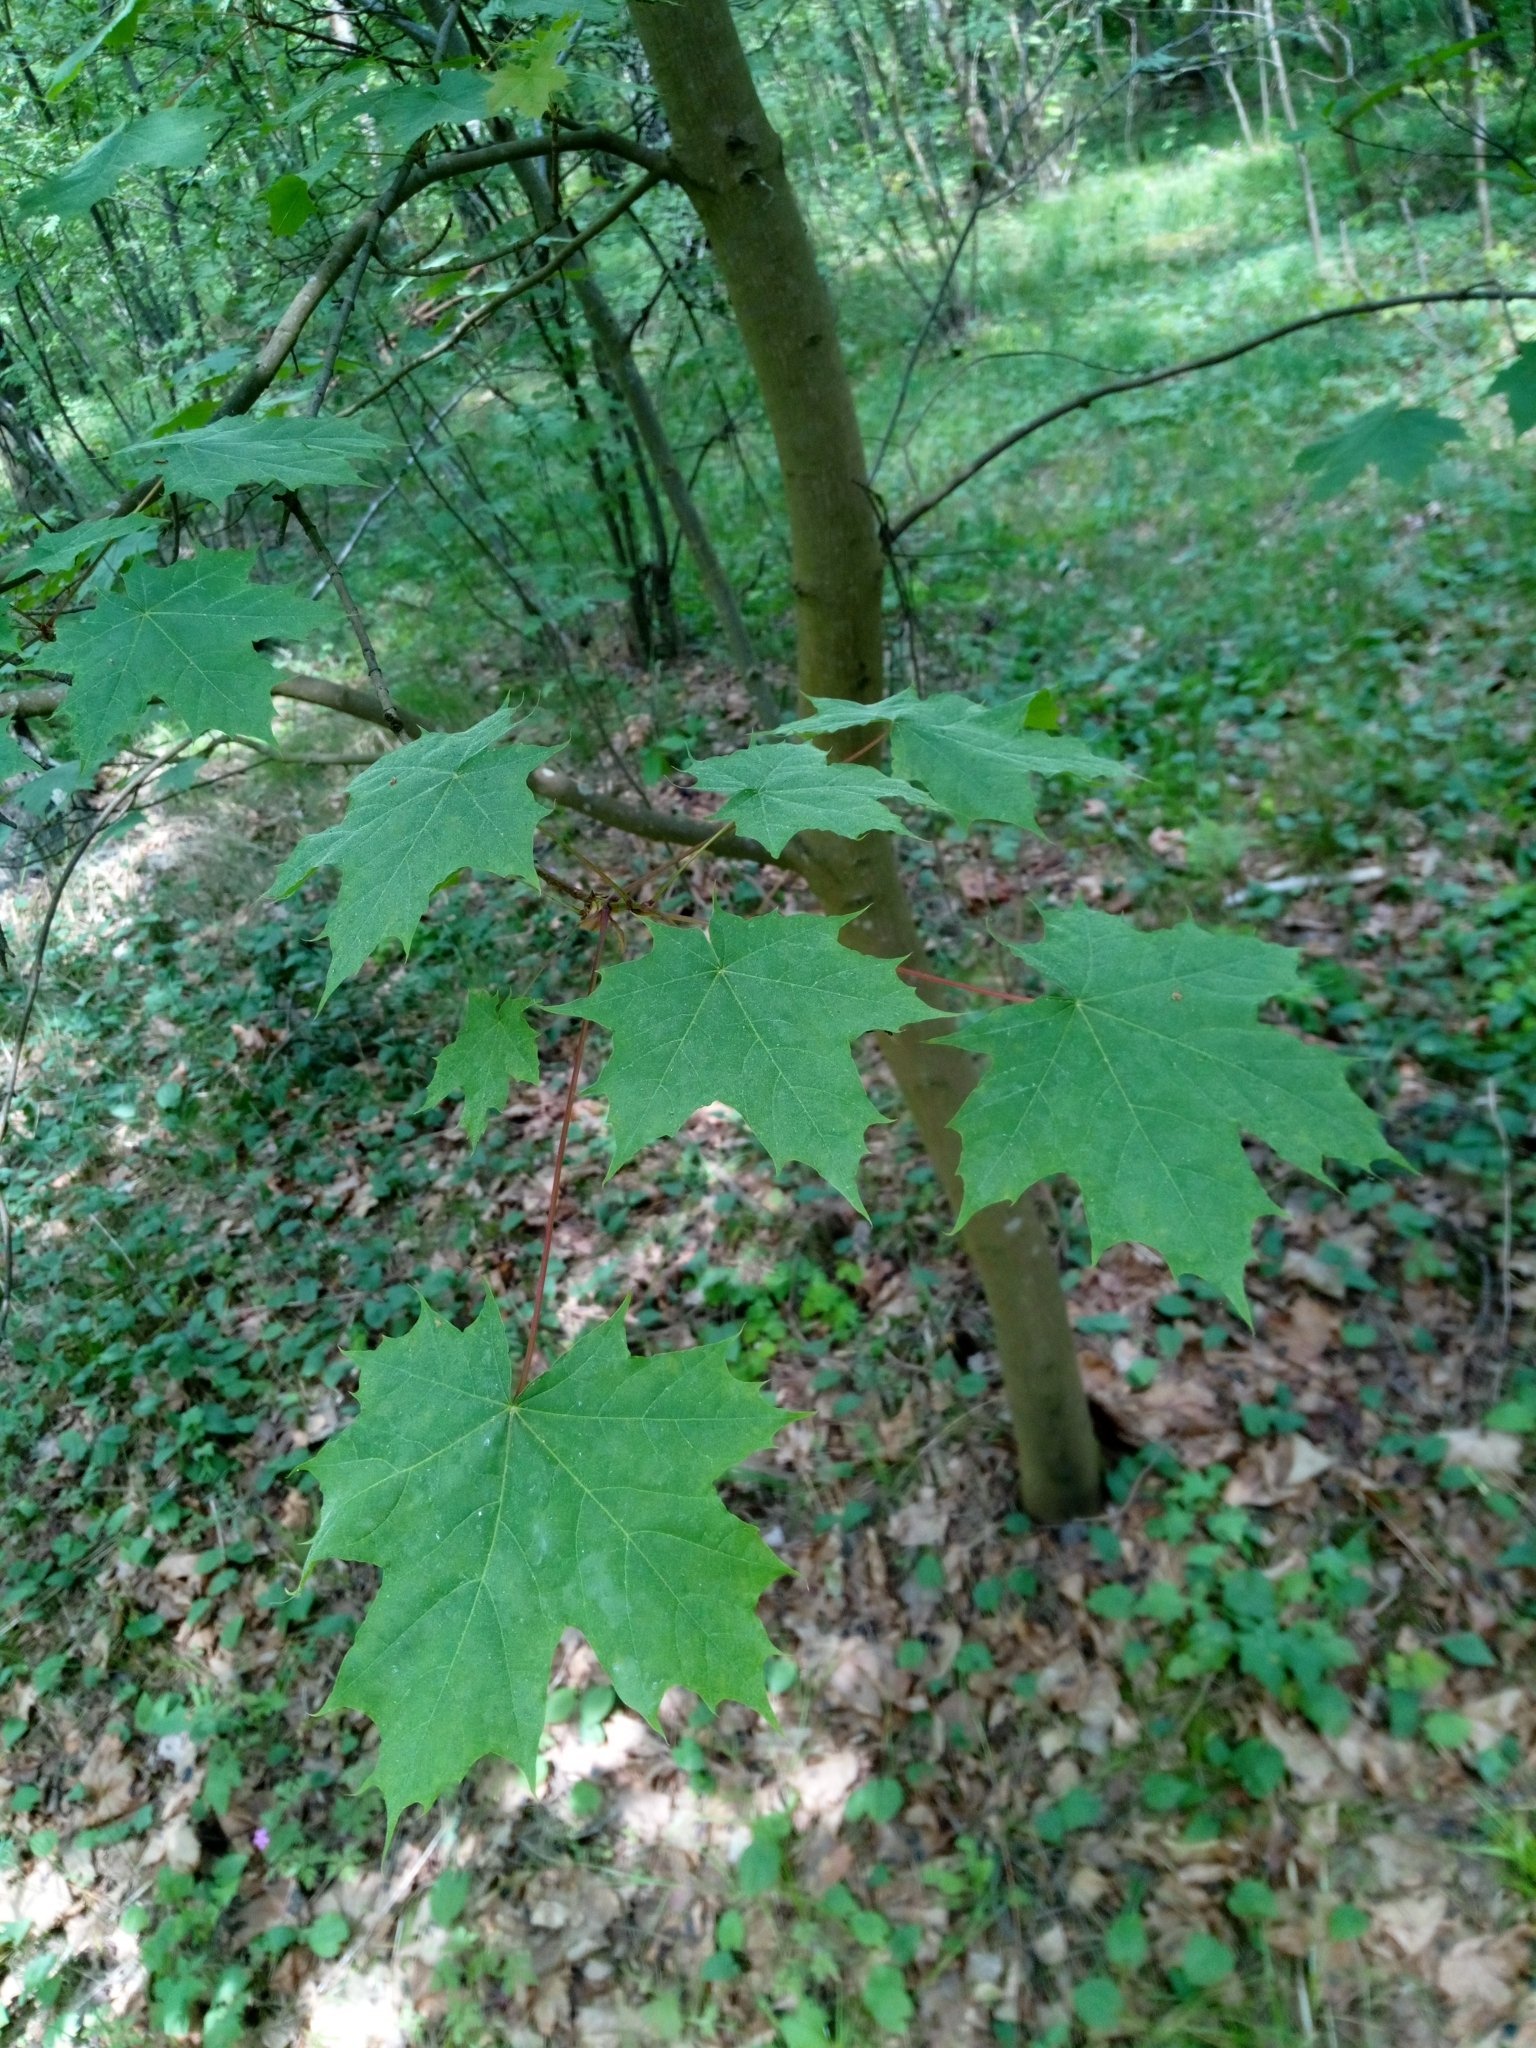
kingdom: Plantae
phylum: Tracheophyta
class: Magnoliopsida
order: Sapindales
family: Sapindaceae
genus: Acer
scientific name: Acer platanoides
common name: Norway maple
